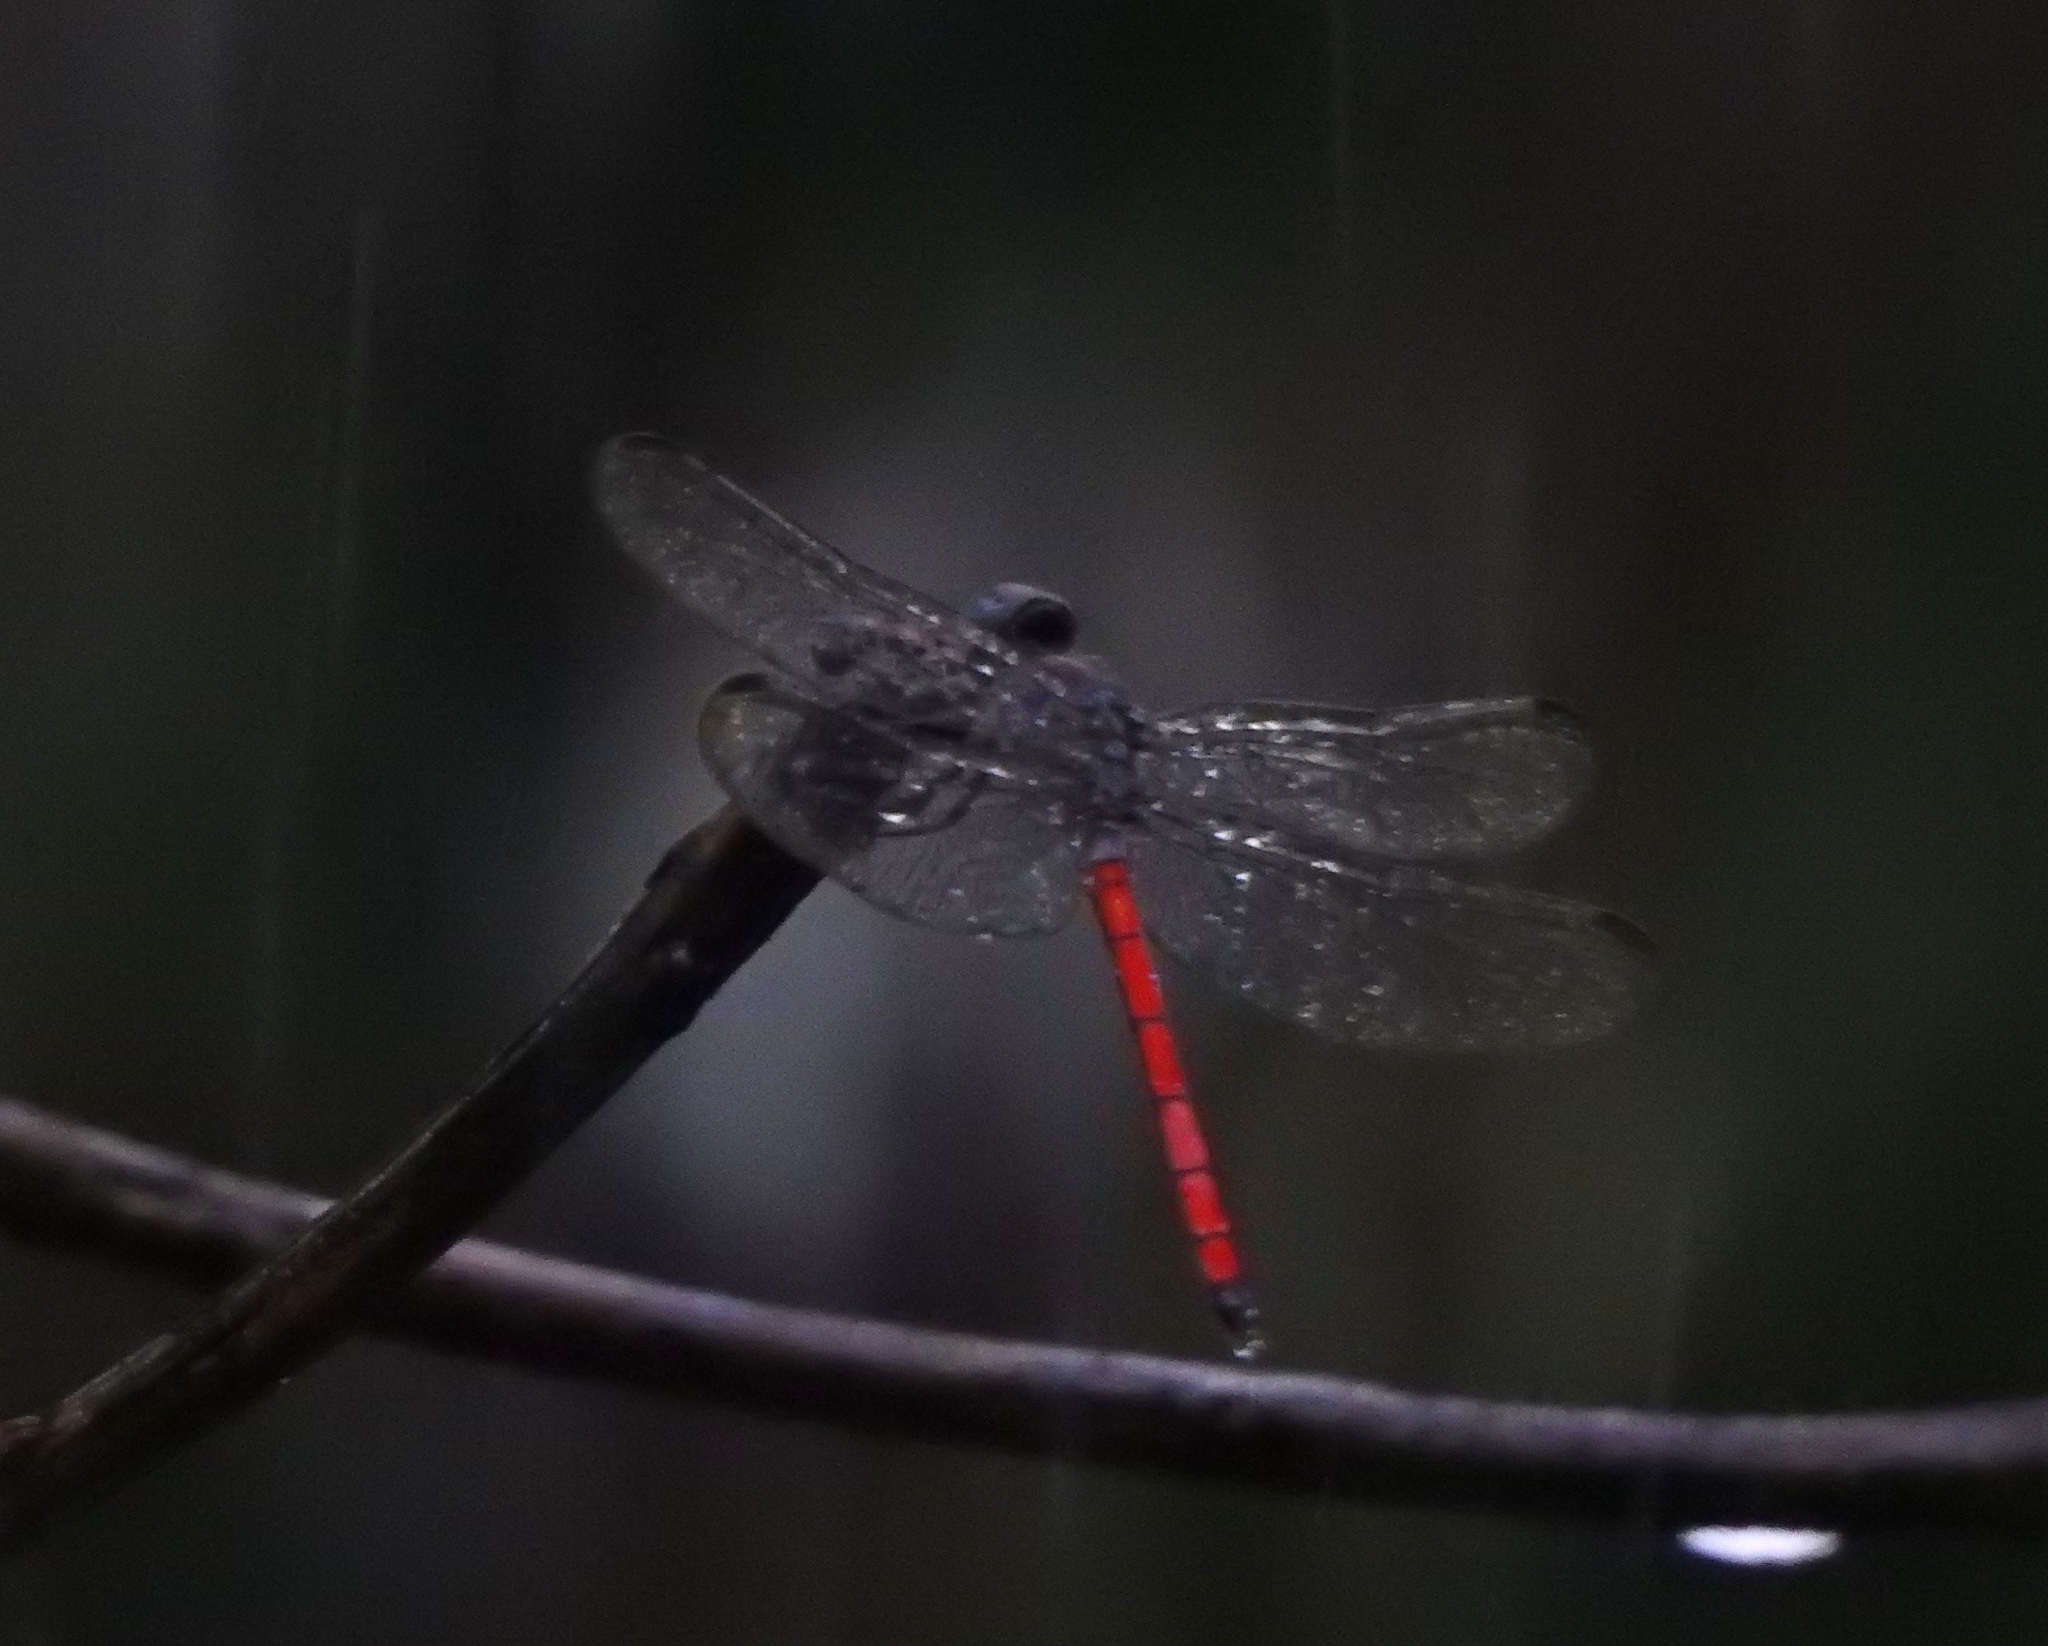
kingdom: Animalia
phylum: Arthropoda
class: Insecta
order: Odonata
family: Libellulidae
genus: Lathrecista
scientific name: Lathrecista asiatica
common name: Scarlet grenadier
